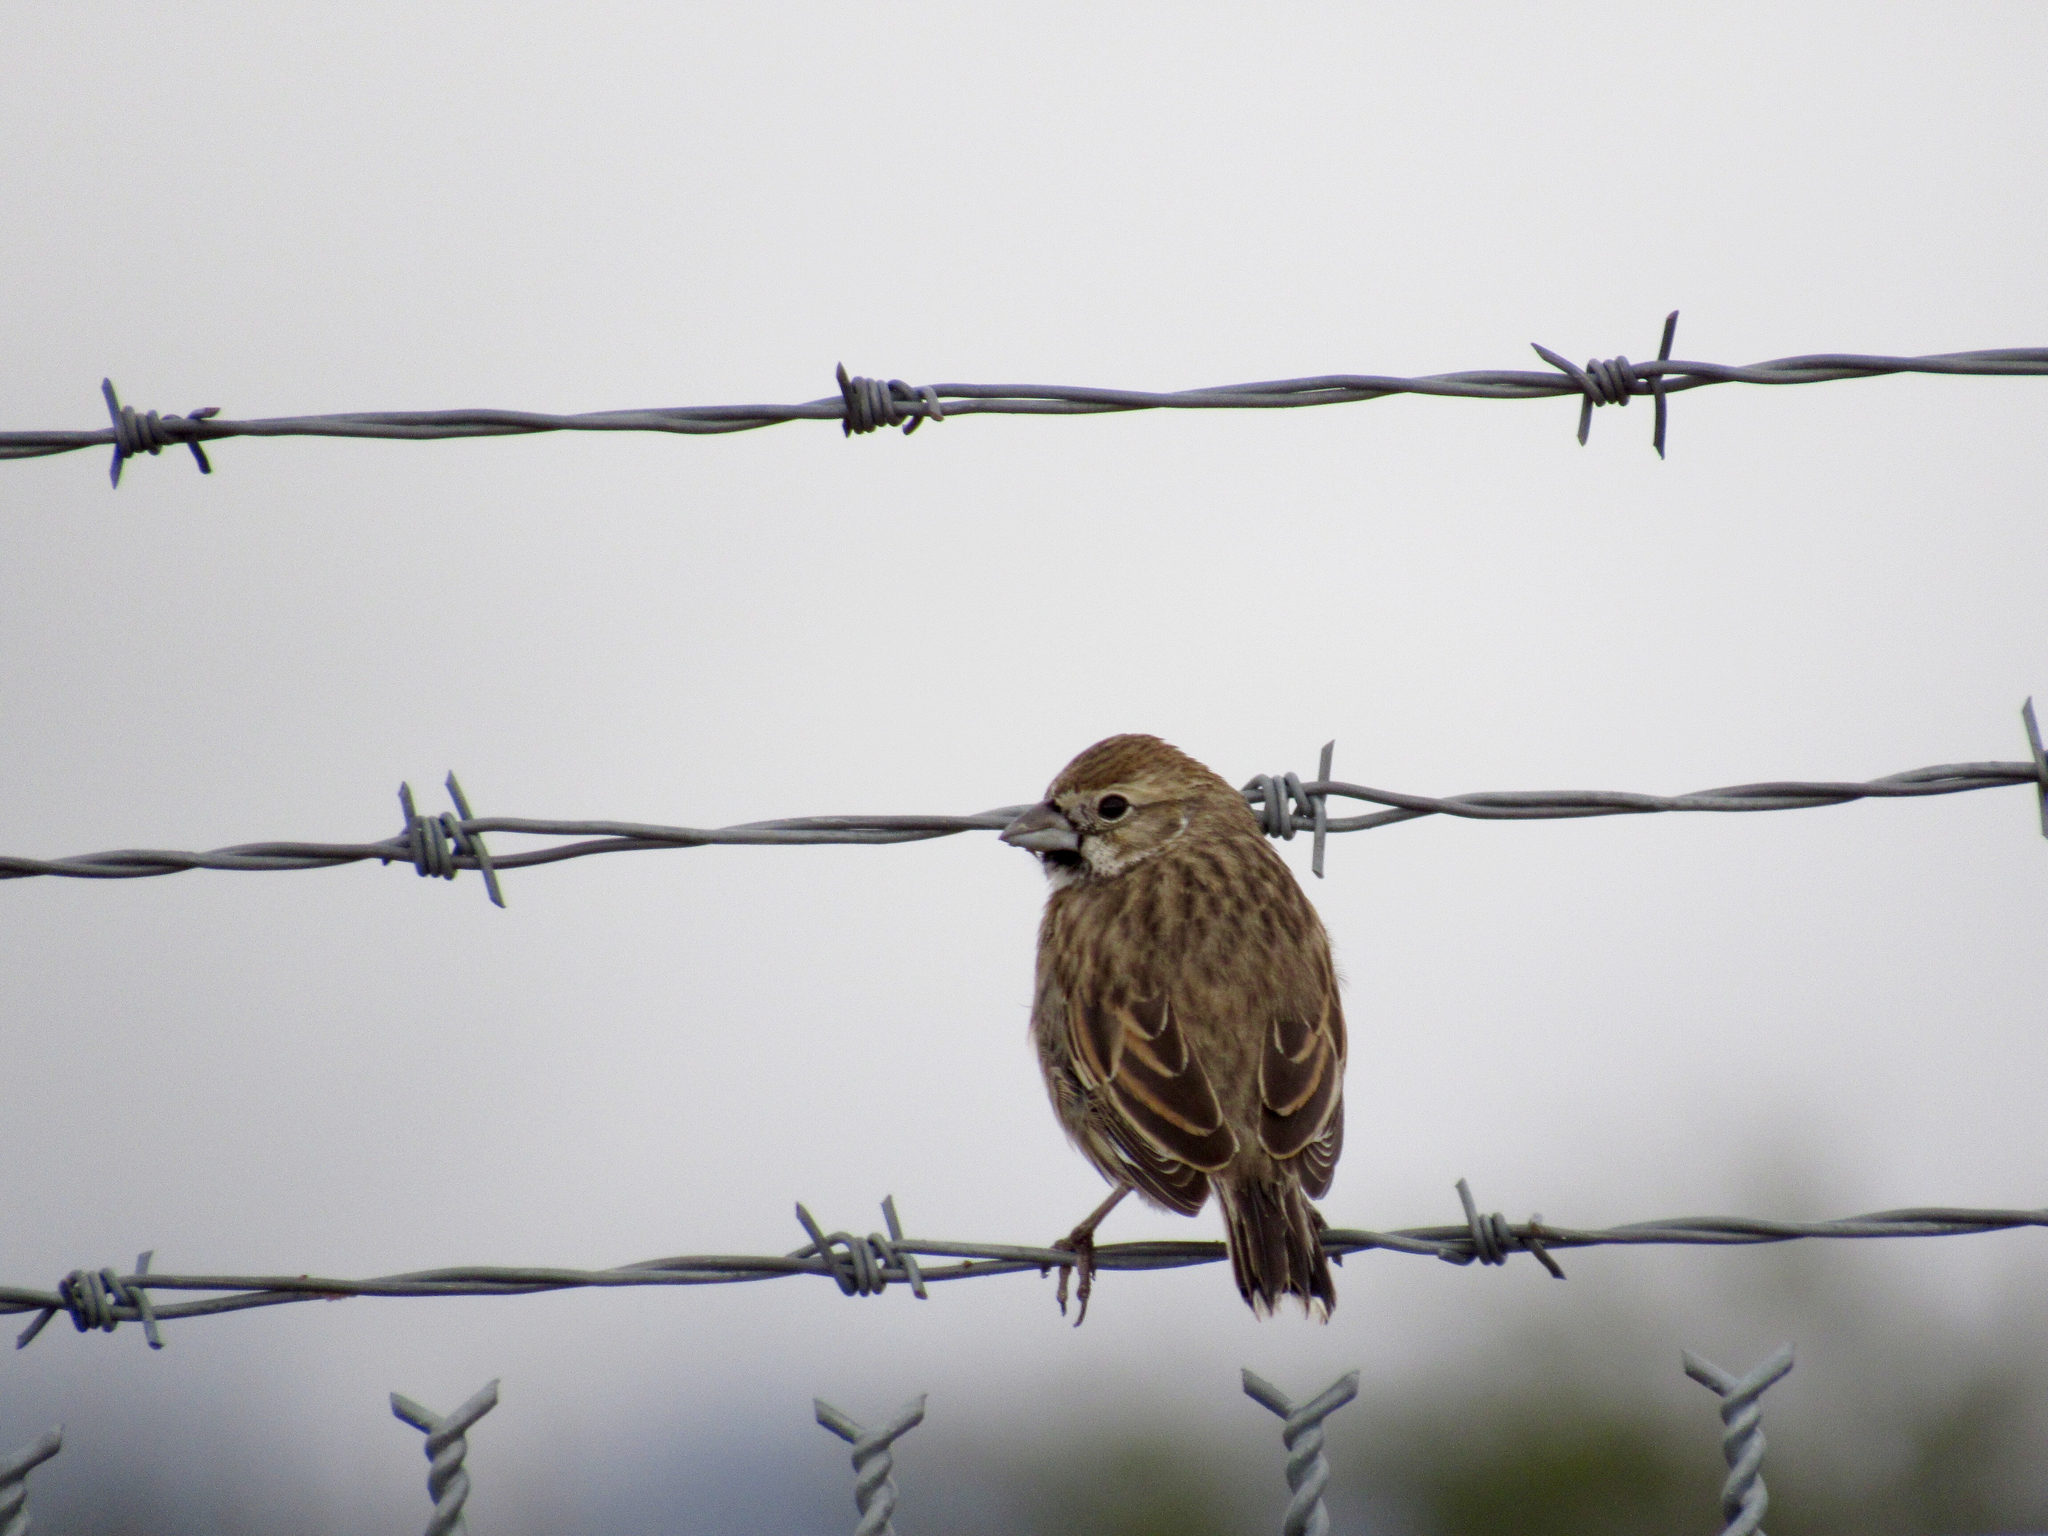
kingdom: Animalia
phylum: Chordata
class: Aves
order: Passeriformes
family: Passerellidae
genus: Calamospiza
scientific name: Calamospiza melanocorys
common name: Lark bunting
